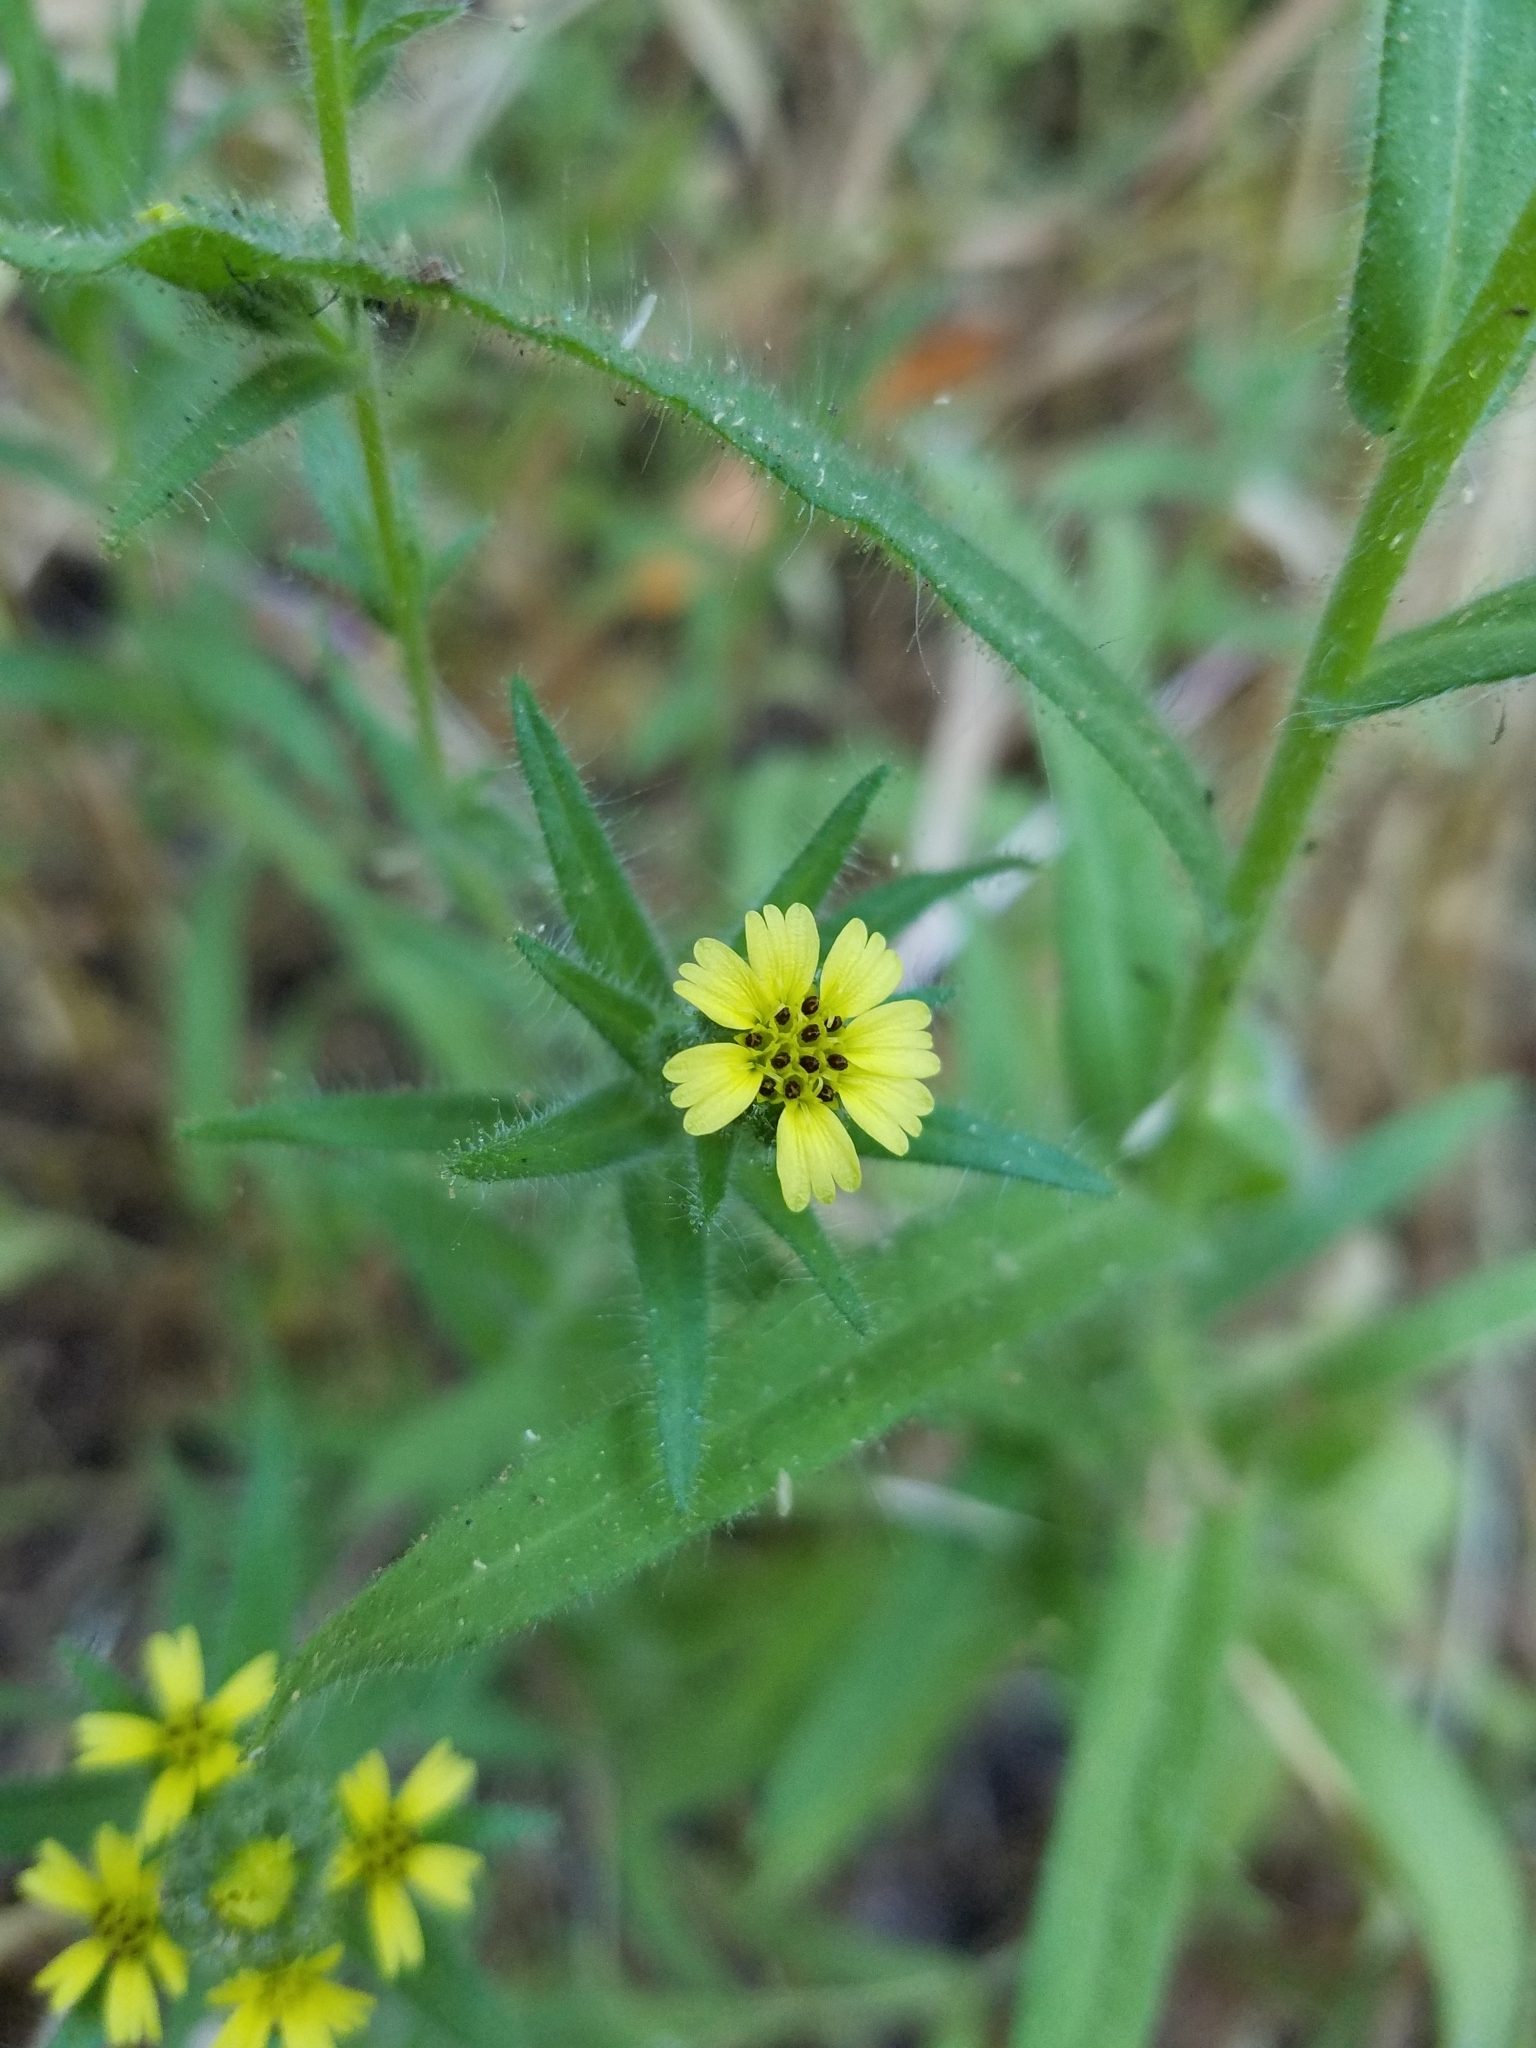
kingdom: Plantae
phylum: Tracheophyta
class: Magnoliopsida
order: Asterales
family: Asteraceae
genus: Madia
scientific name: Madia gracilis
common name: Grassy tarweed
